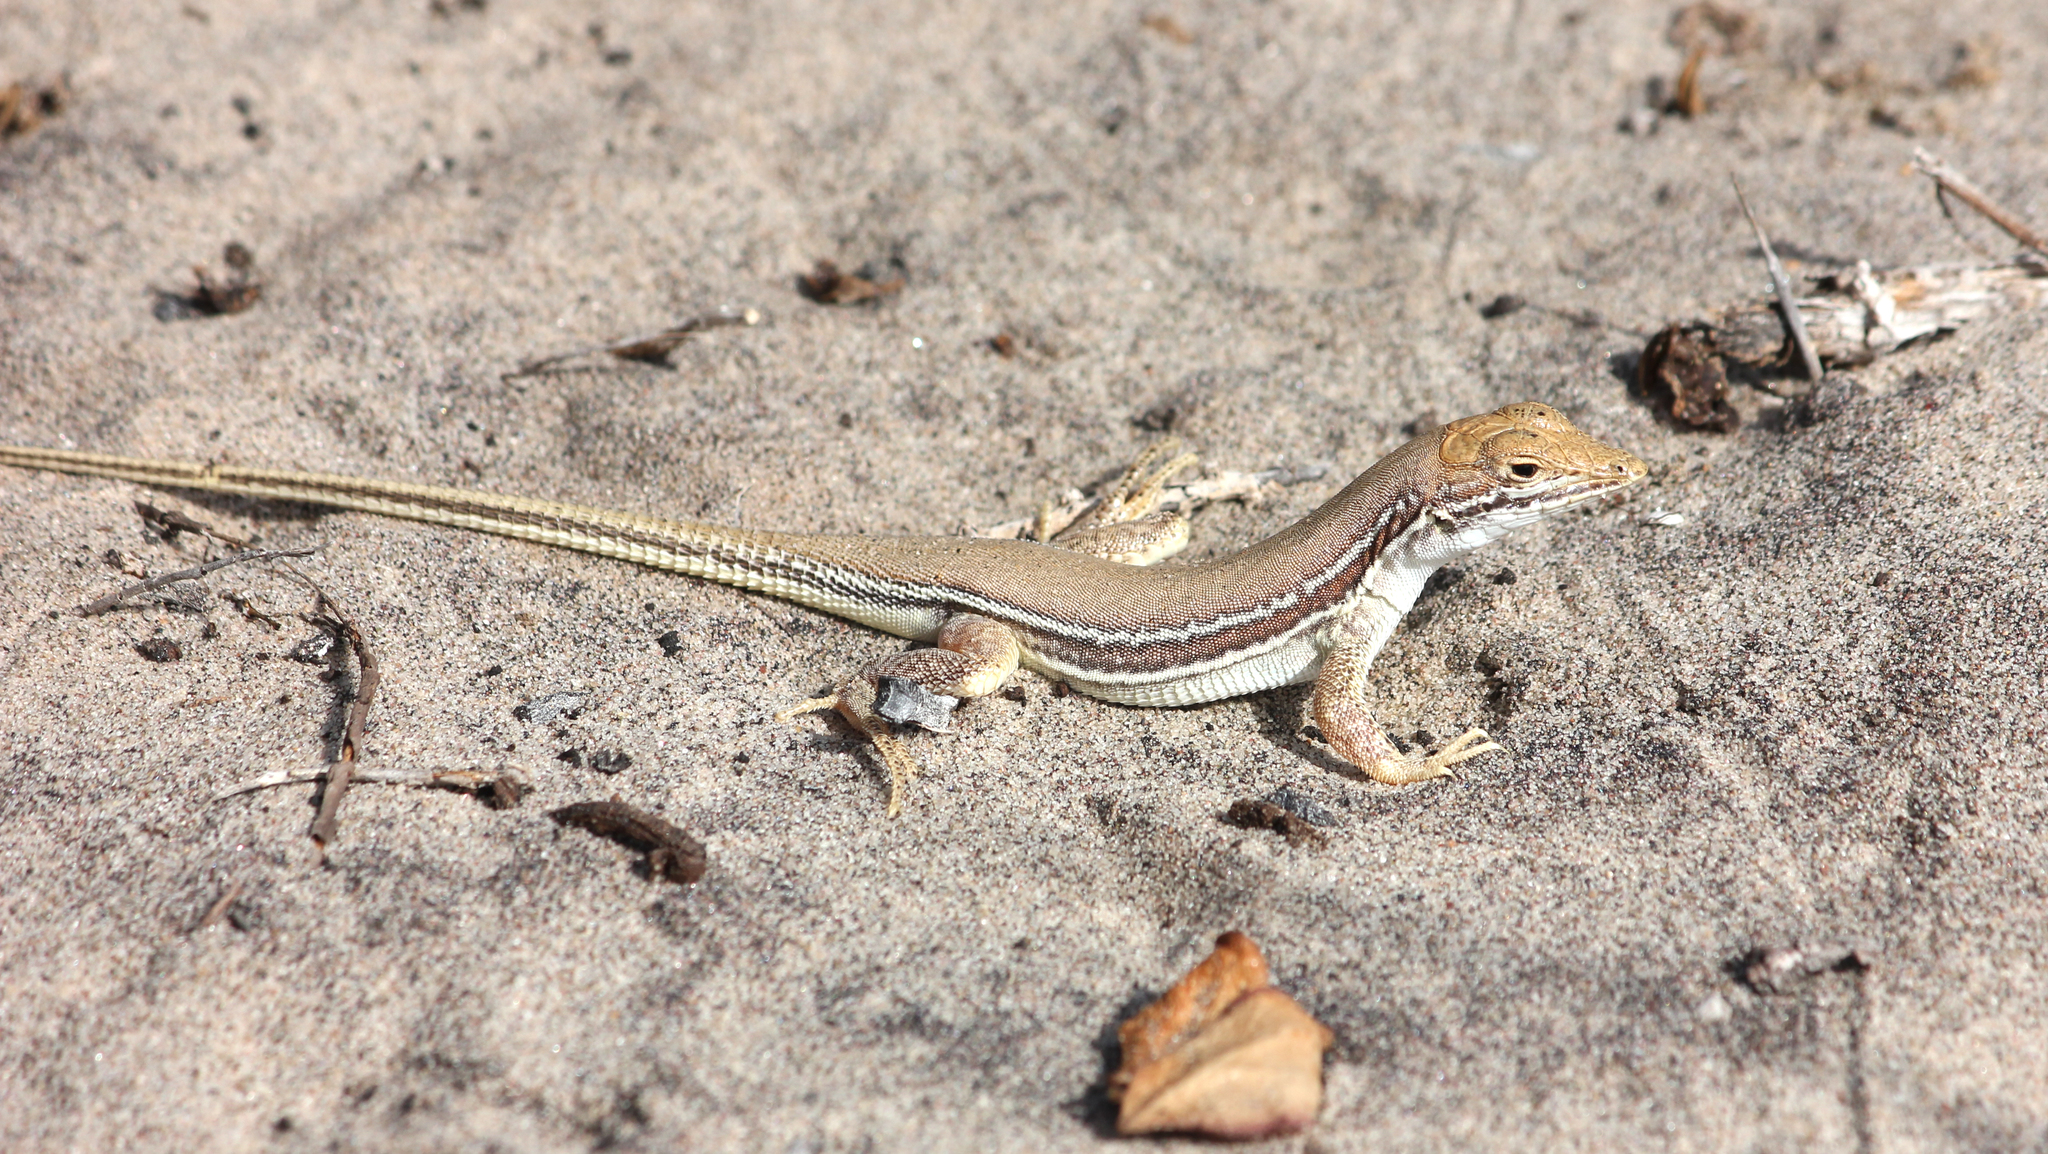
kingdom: Animalia
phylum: Chordata
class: Squamata
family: Lacertidae
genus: Meroles
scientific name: Meroles ctenodactylus
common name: Giant desert lizard
